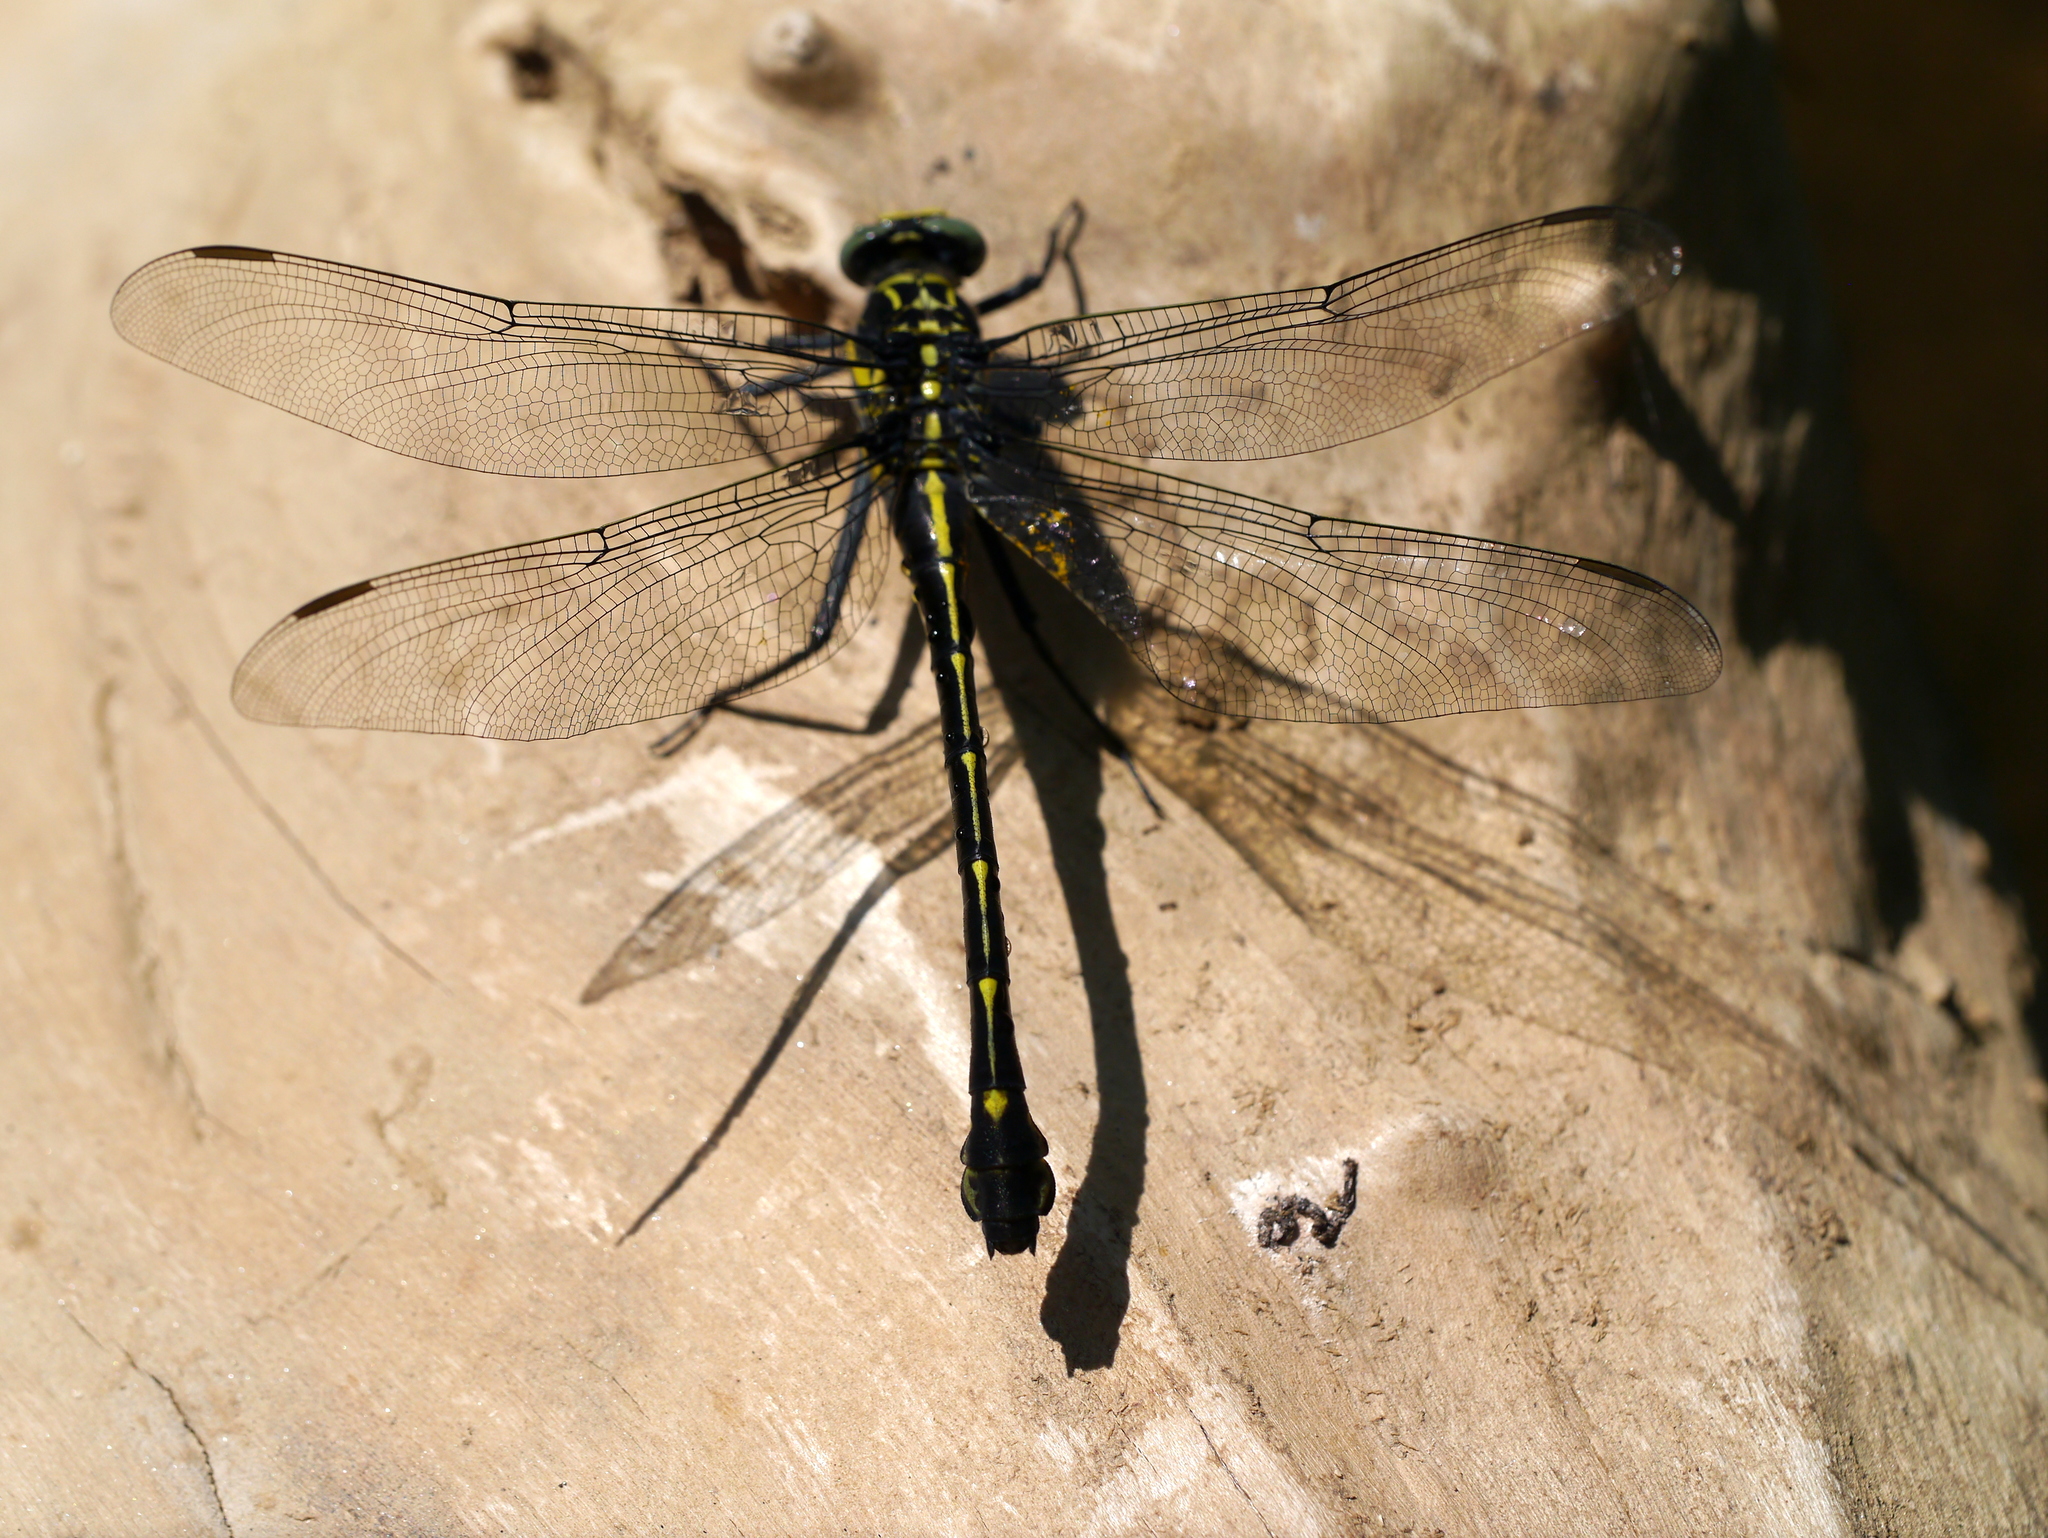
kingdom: Animalia
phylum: Arthropoda
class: Insecta
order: Odonata
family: Gomphidae
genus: Hagenius
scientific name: Hagenius brevistylus
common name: Dragonhunter
